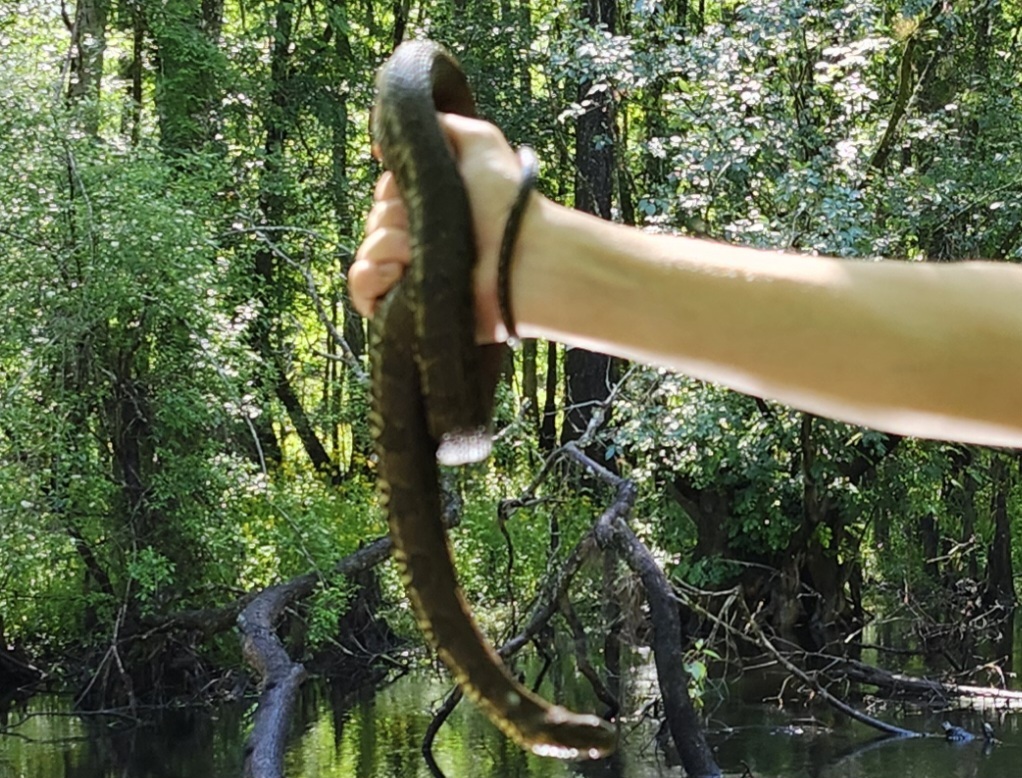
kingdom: Animalia
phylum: Chordata
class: Squamata
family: Colubridae
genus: Nerodia
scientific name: Nerodia taxispilota
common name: Brown water snake
